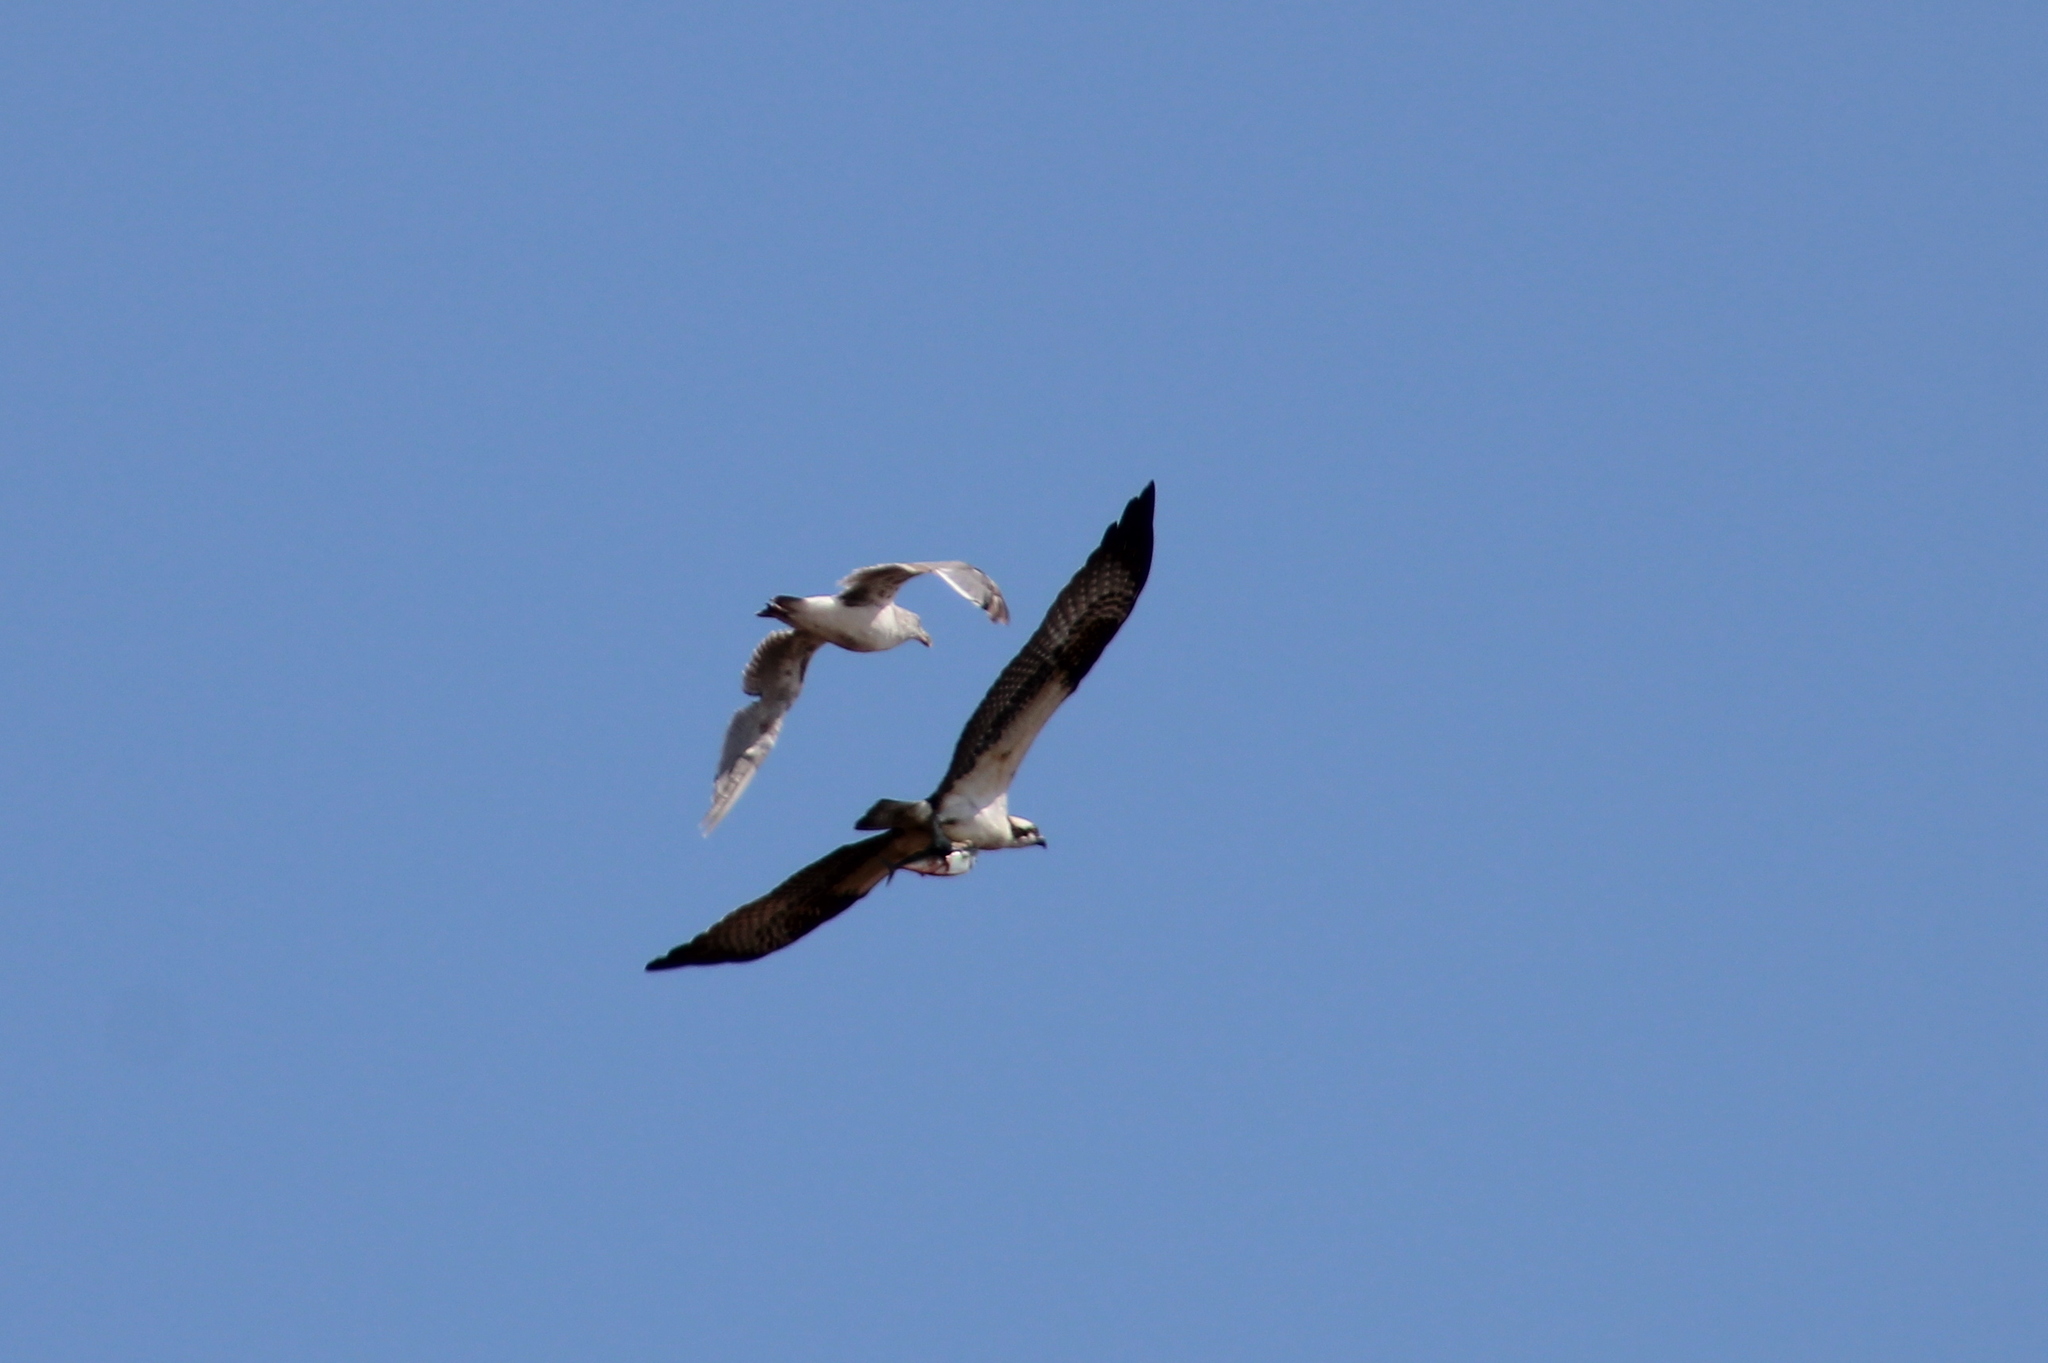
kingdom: Animalia
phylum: Chordata
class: Aves
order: Accipitriformes
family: Pandionidae
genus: Pandion
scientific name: Pandion haliaetus
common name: Osprey
